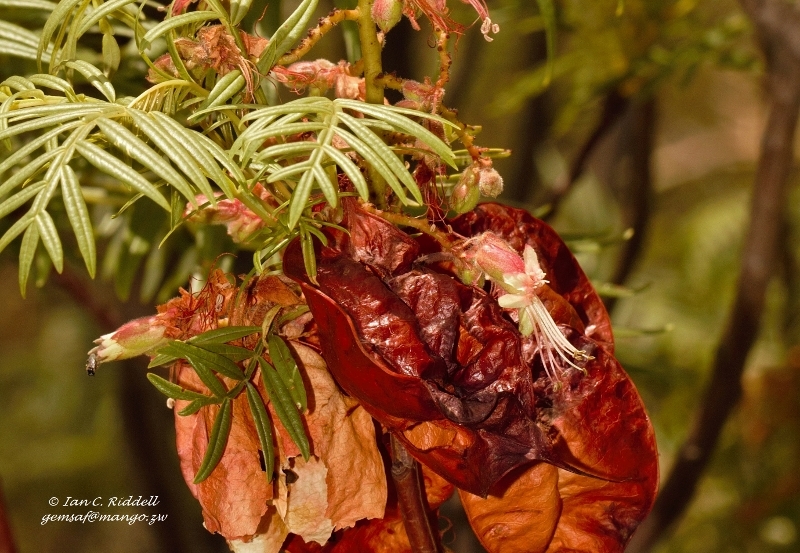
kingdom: Plantae
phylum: Tracheophyta
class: Magnoliopsida
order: Sapindales
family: Sapindaceae
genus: Erythrophysa
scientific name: Erythrophysa transvaalensis
